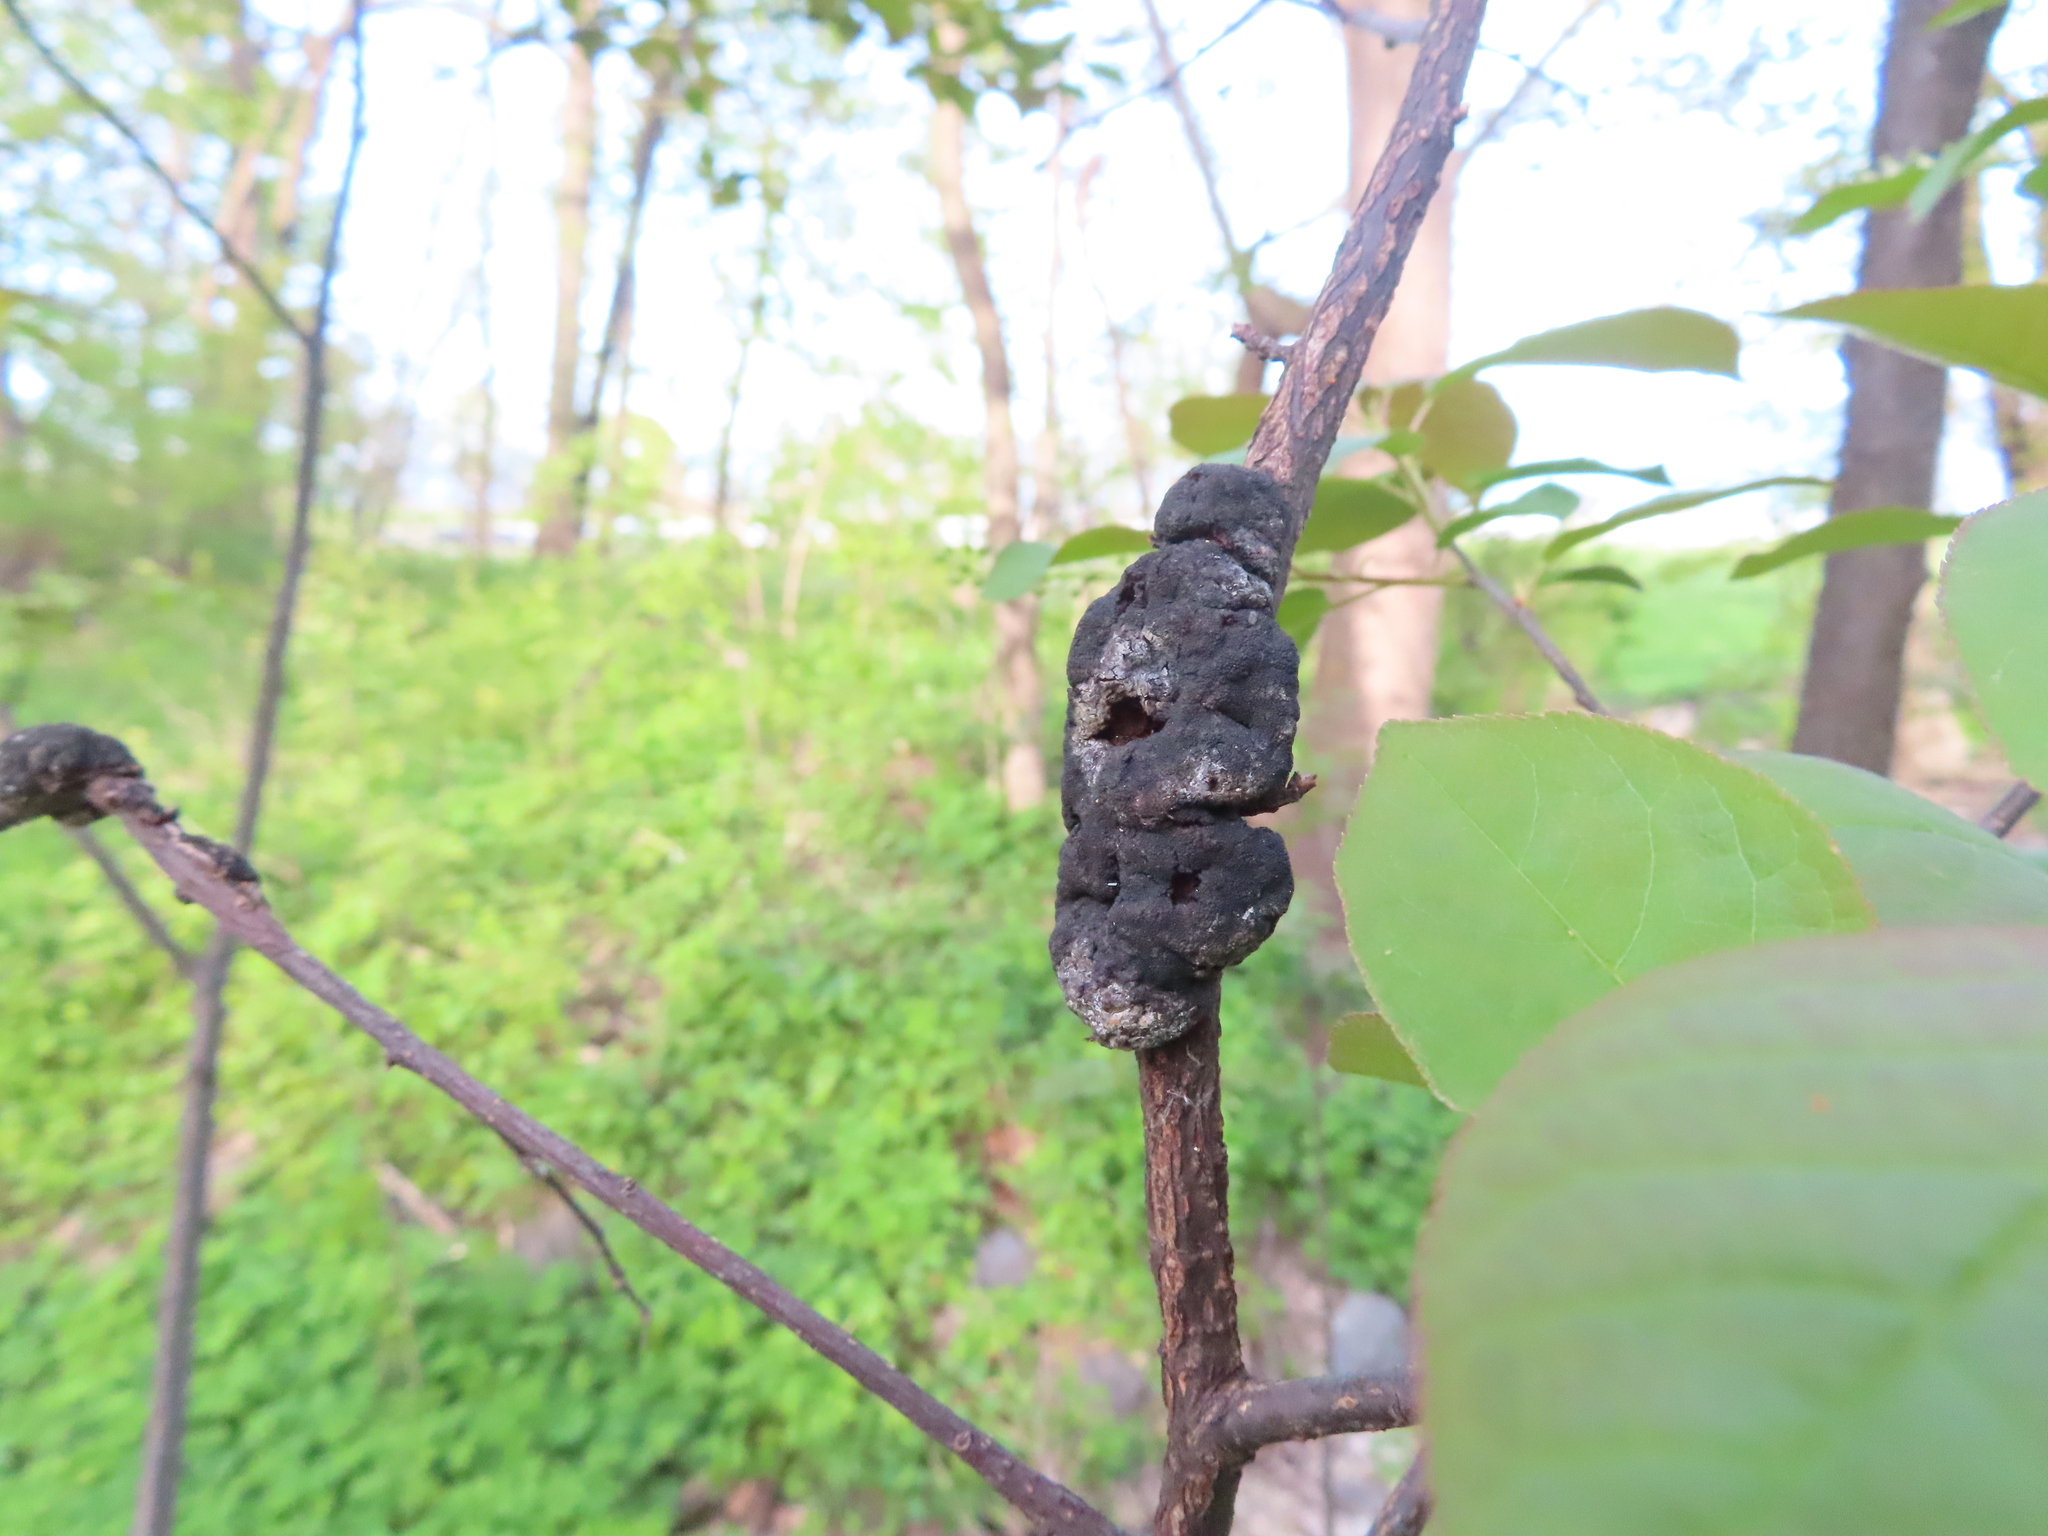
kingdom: Fungi
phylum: Ascomycota
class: Dothideomycetes
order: Venturiales
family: Venturiaceae
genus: Apiosporina
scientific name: Apiosporina morbosa
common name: Black knot
